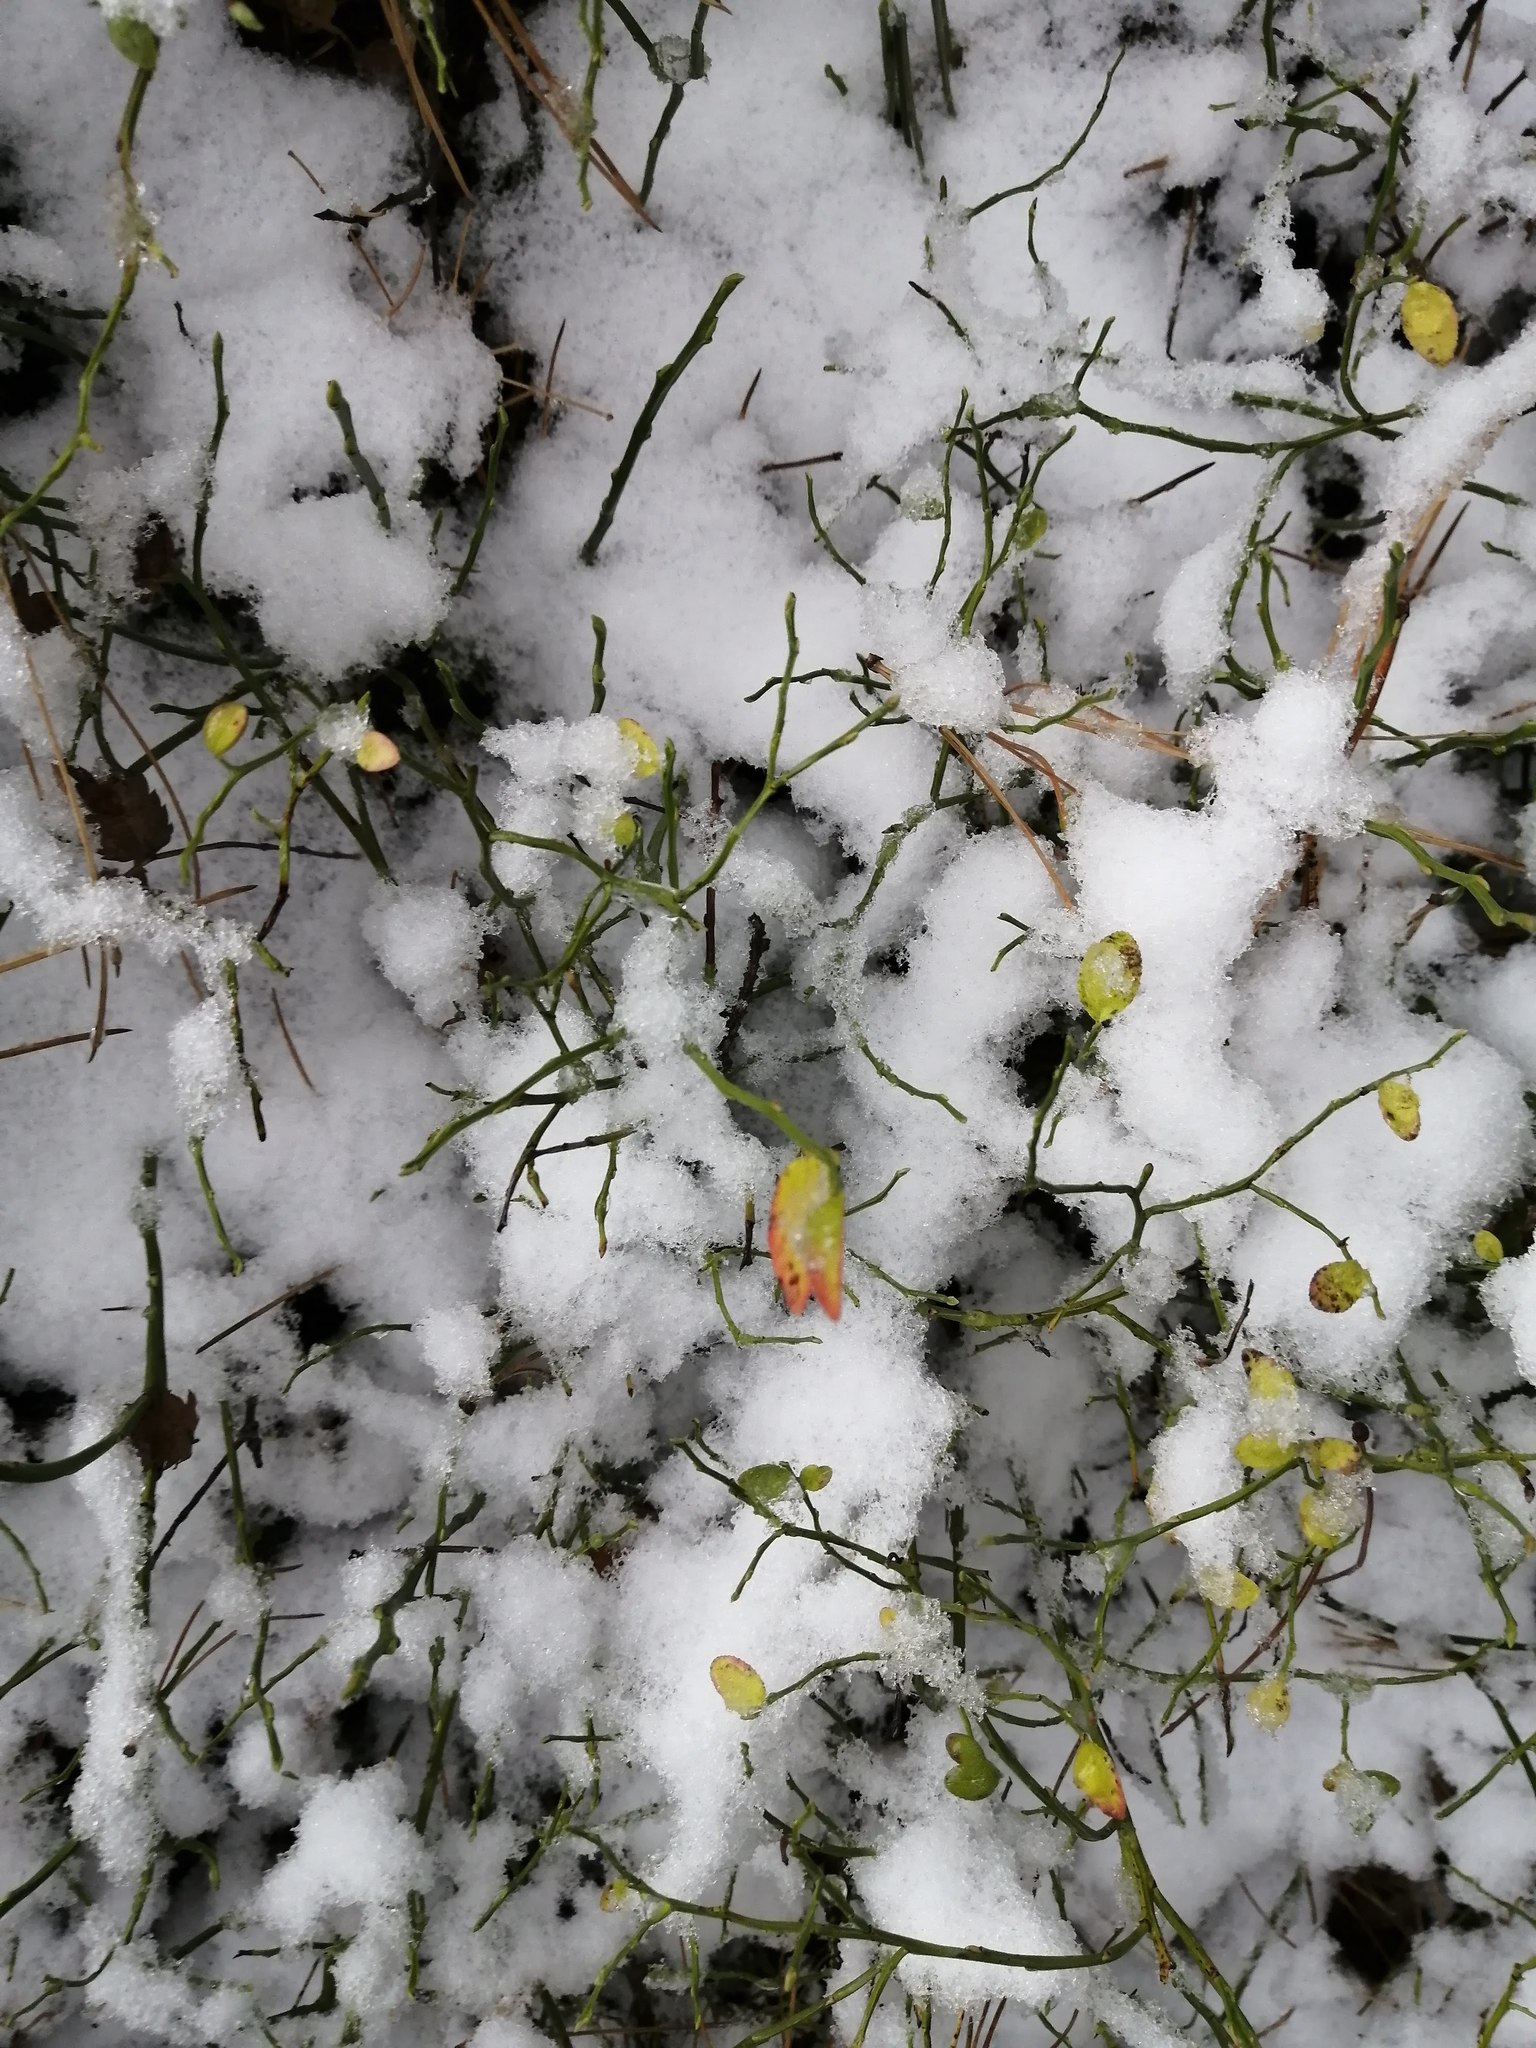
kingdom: Plantae
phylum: Tracheophyta
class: Magnoliopsida
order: Ericales
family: Ericaceae
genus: Vaccinium
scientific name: Vaccinium myrtillus
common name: Bilberry
